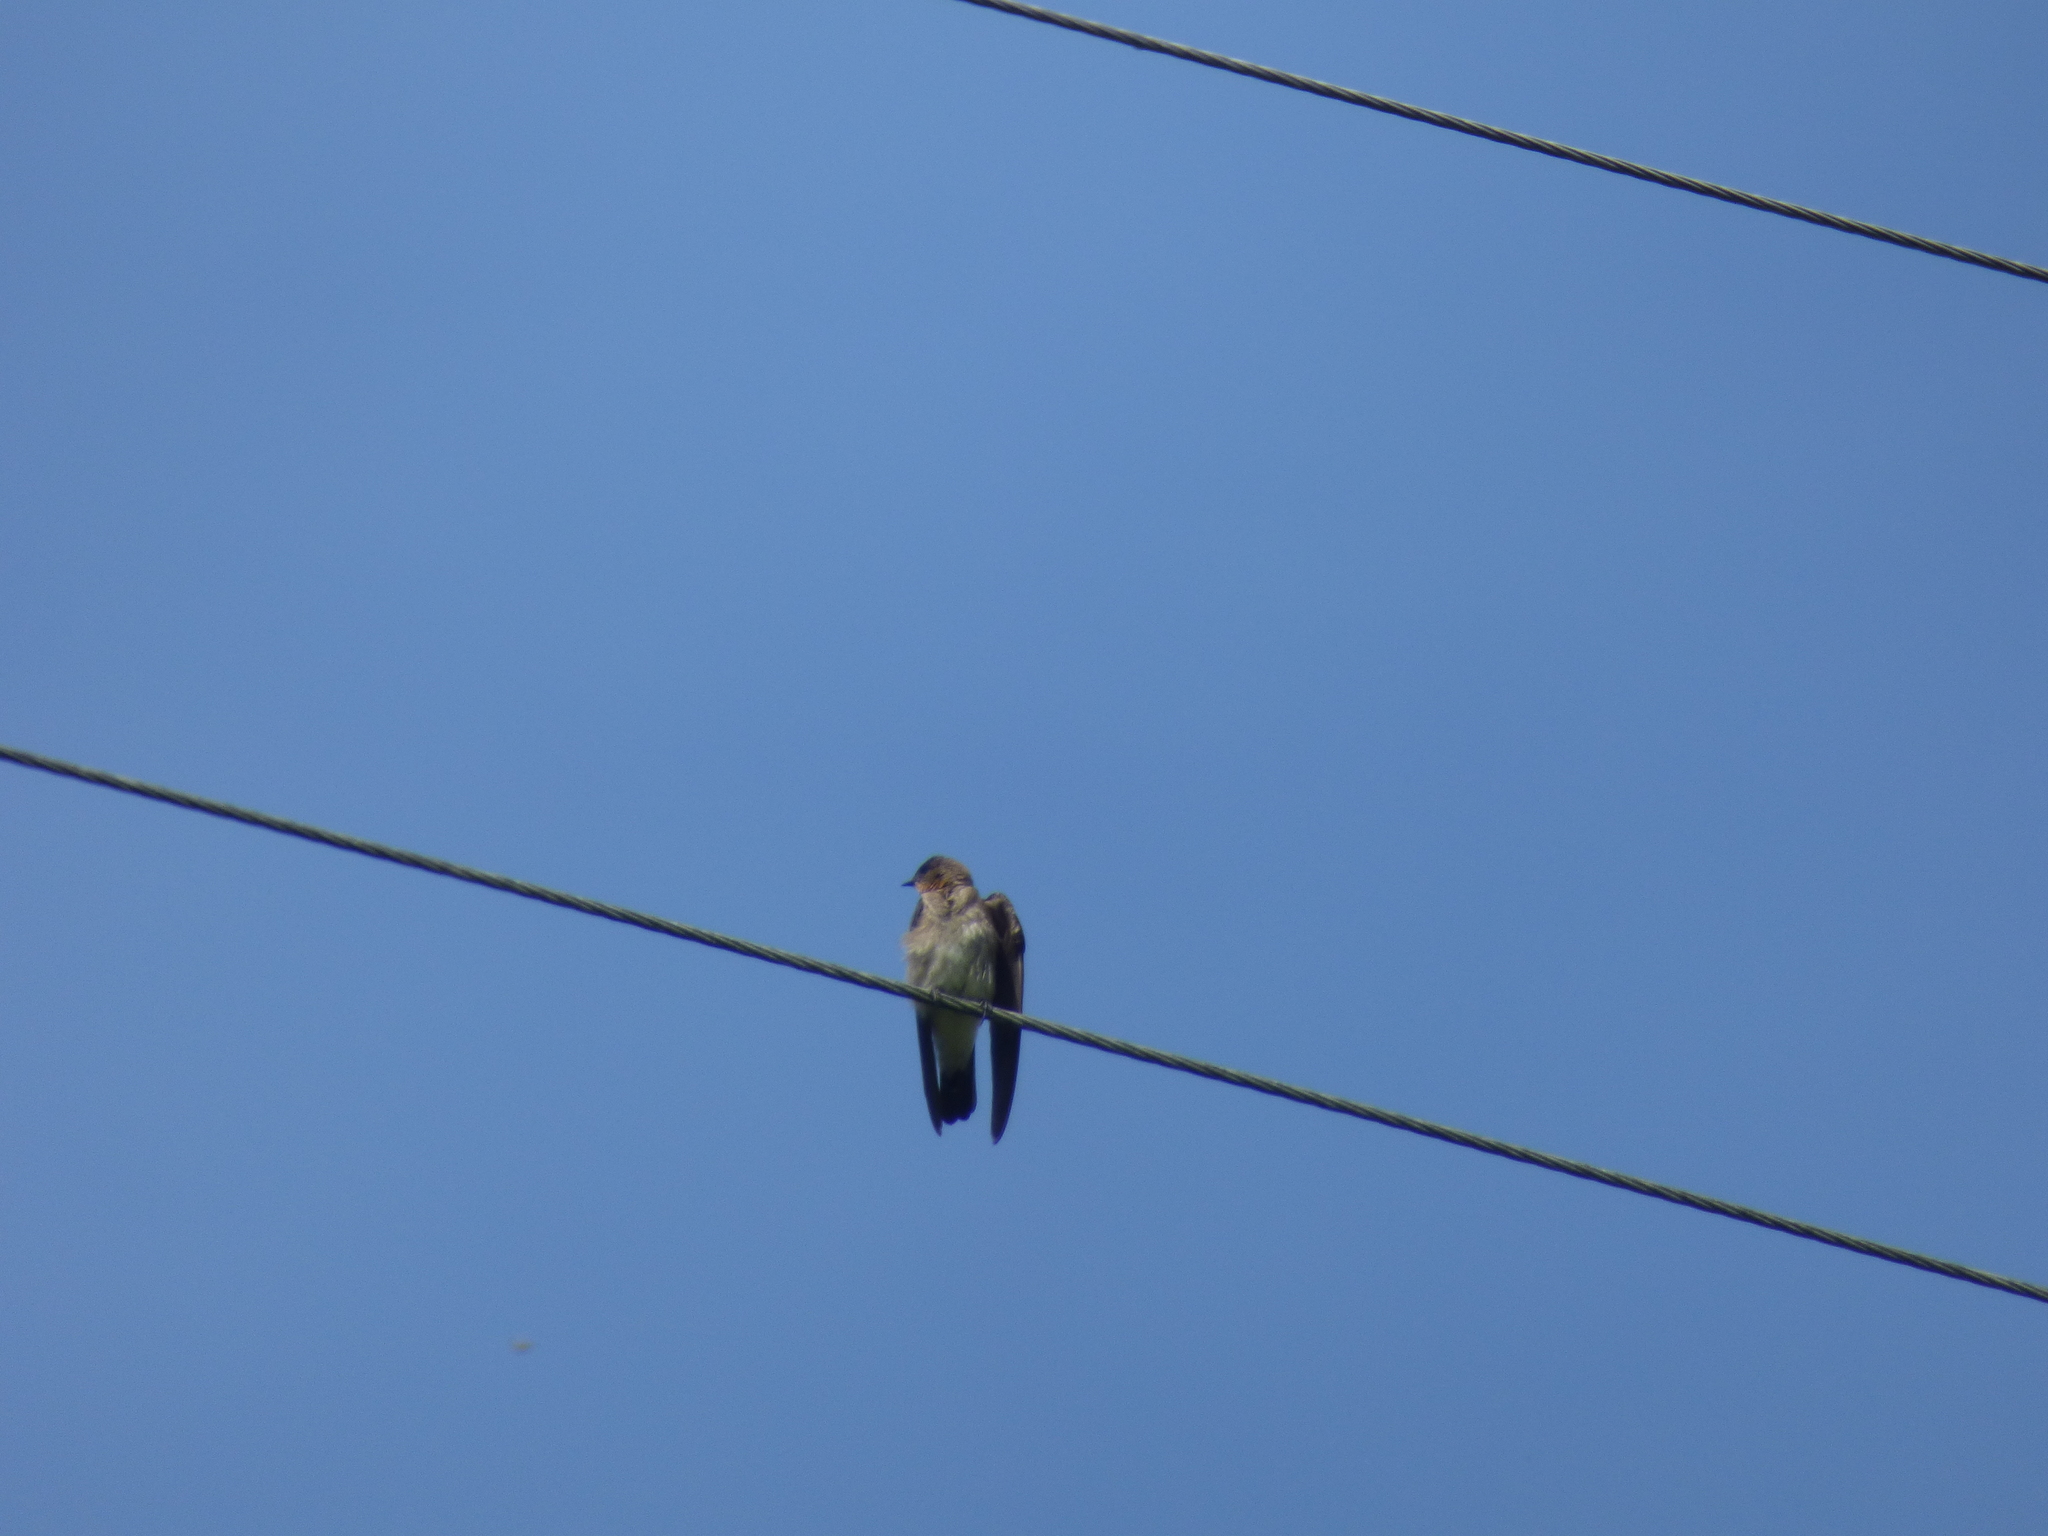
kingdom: Animalia
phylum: Chordata
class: Aves
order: Passeriformes
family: Hirundinidae
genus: Stelgidopteryx
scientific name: Stelgidopteryx ruficollis
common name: Southern rough-winged swallow
